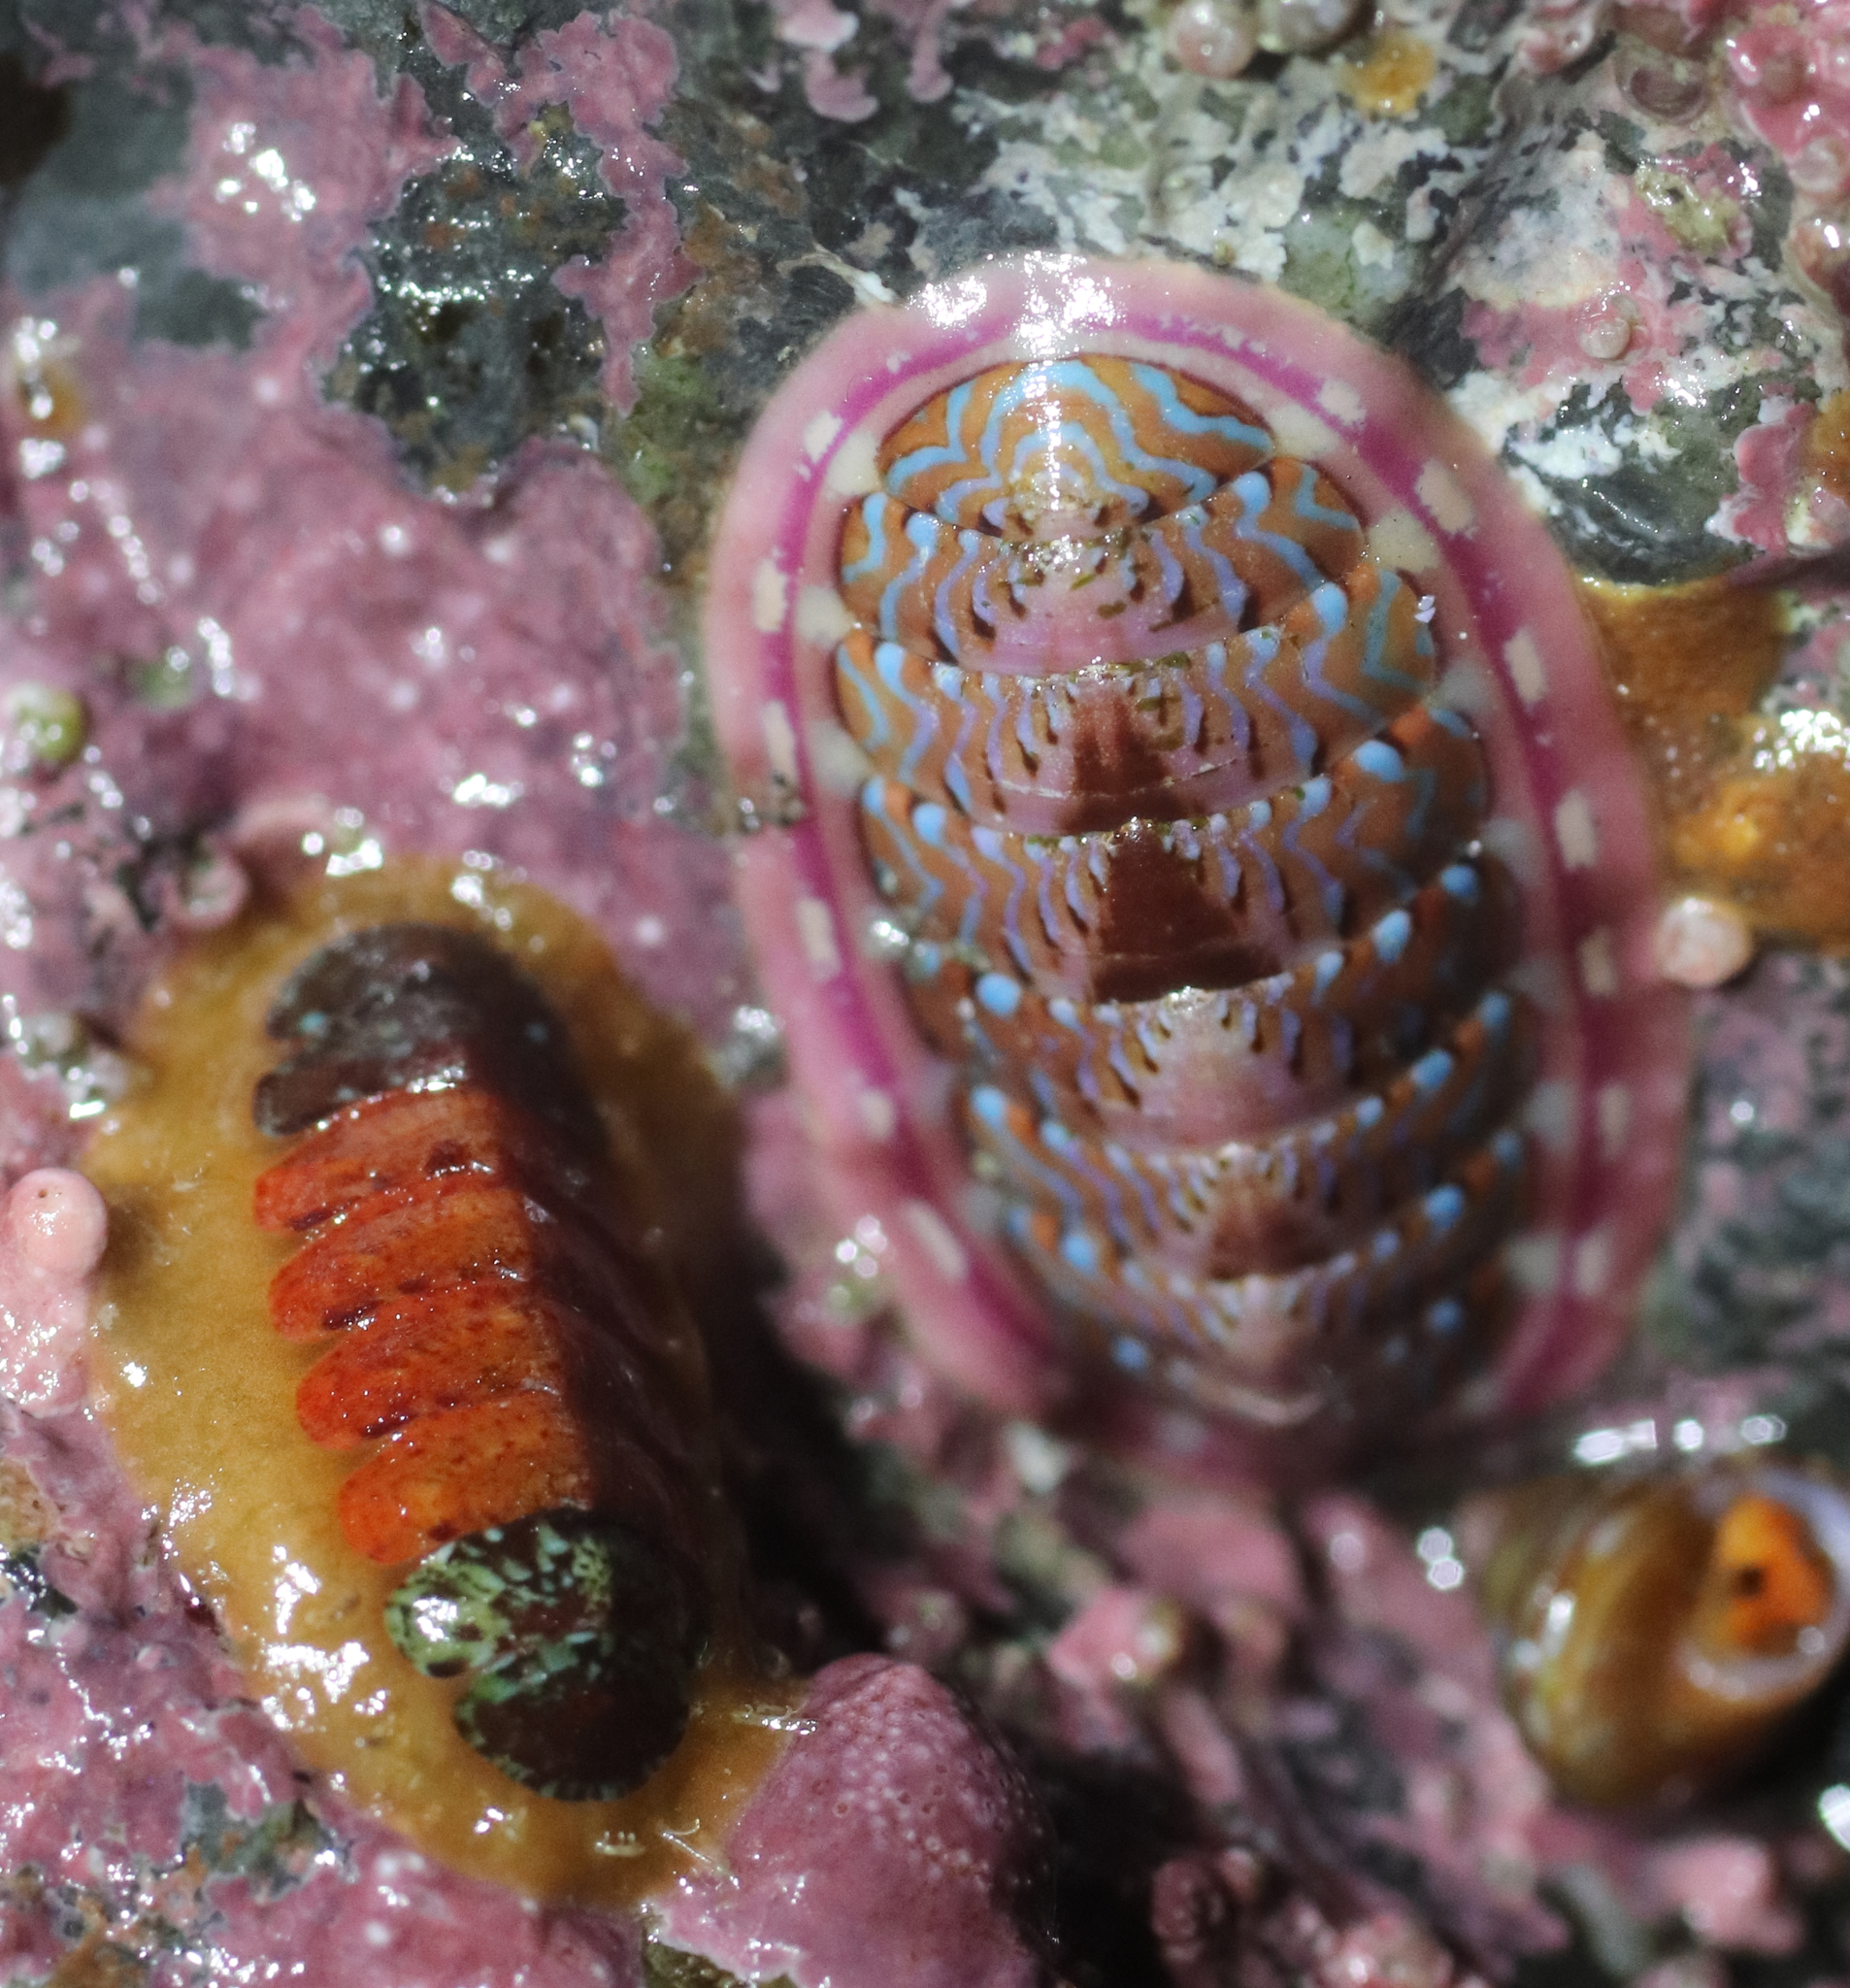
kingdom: Animalia
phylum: Mollusca
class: Polyplacophora
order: Chitonida
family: Tonicellidae
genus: Tonicella
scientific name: Tonicella lineata
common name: Lined chiton
